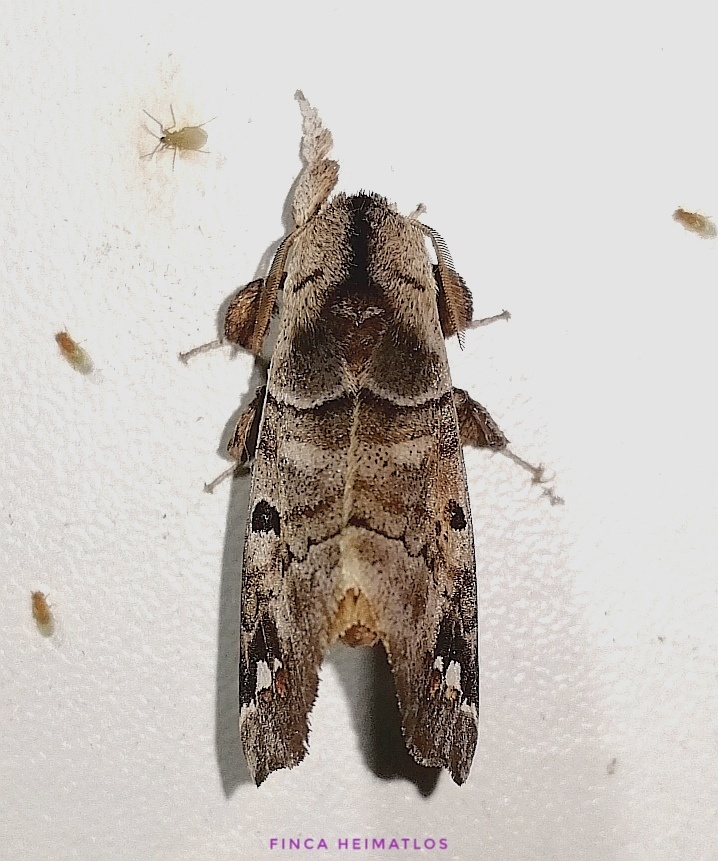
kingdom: Animalia
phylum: Arthropoda
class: Insecta
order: Lepidoptera
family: Apatelodidae
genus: Pantelodes
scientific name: Pantelodes maranhensis
